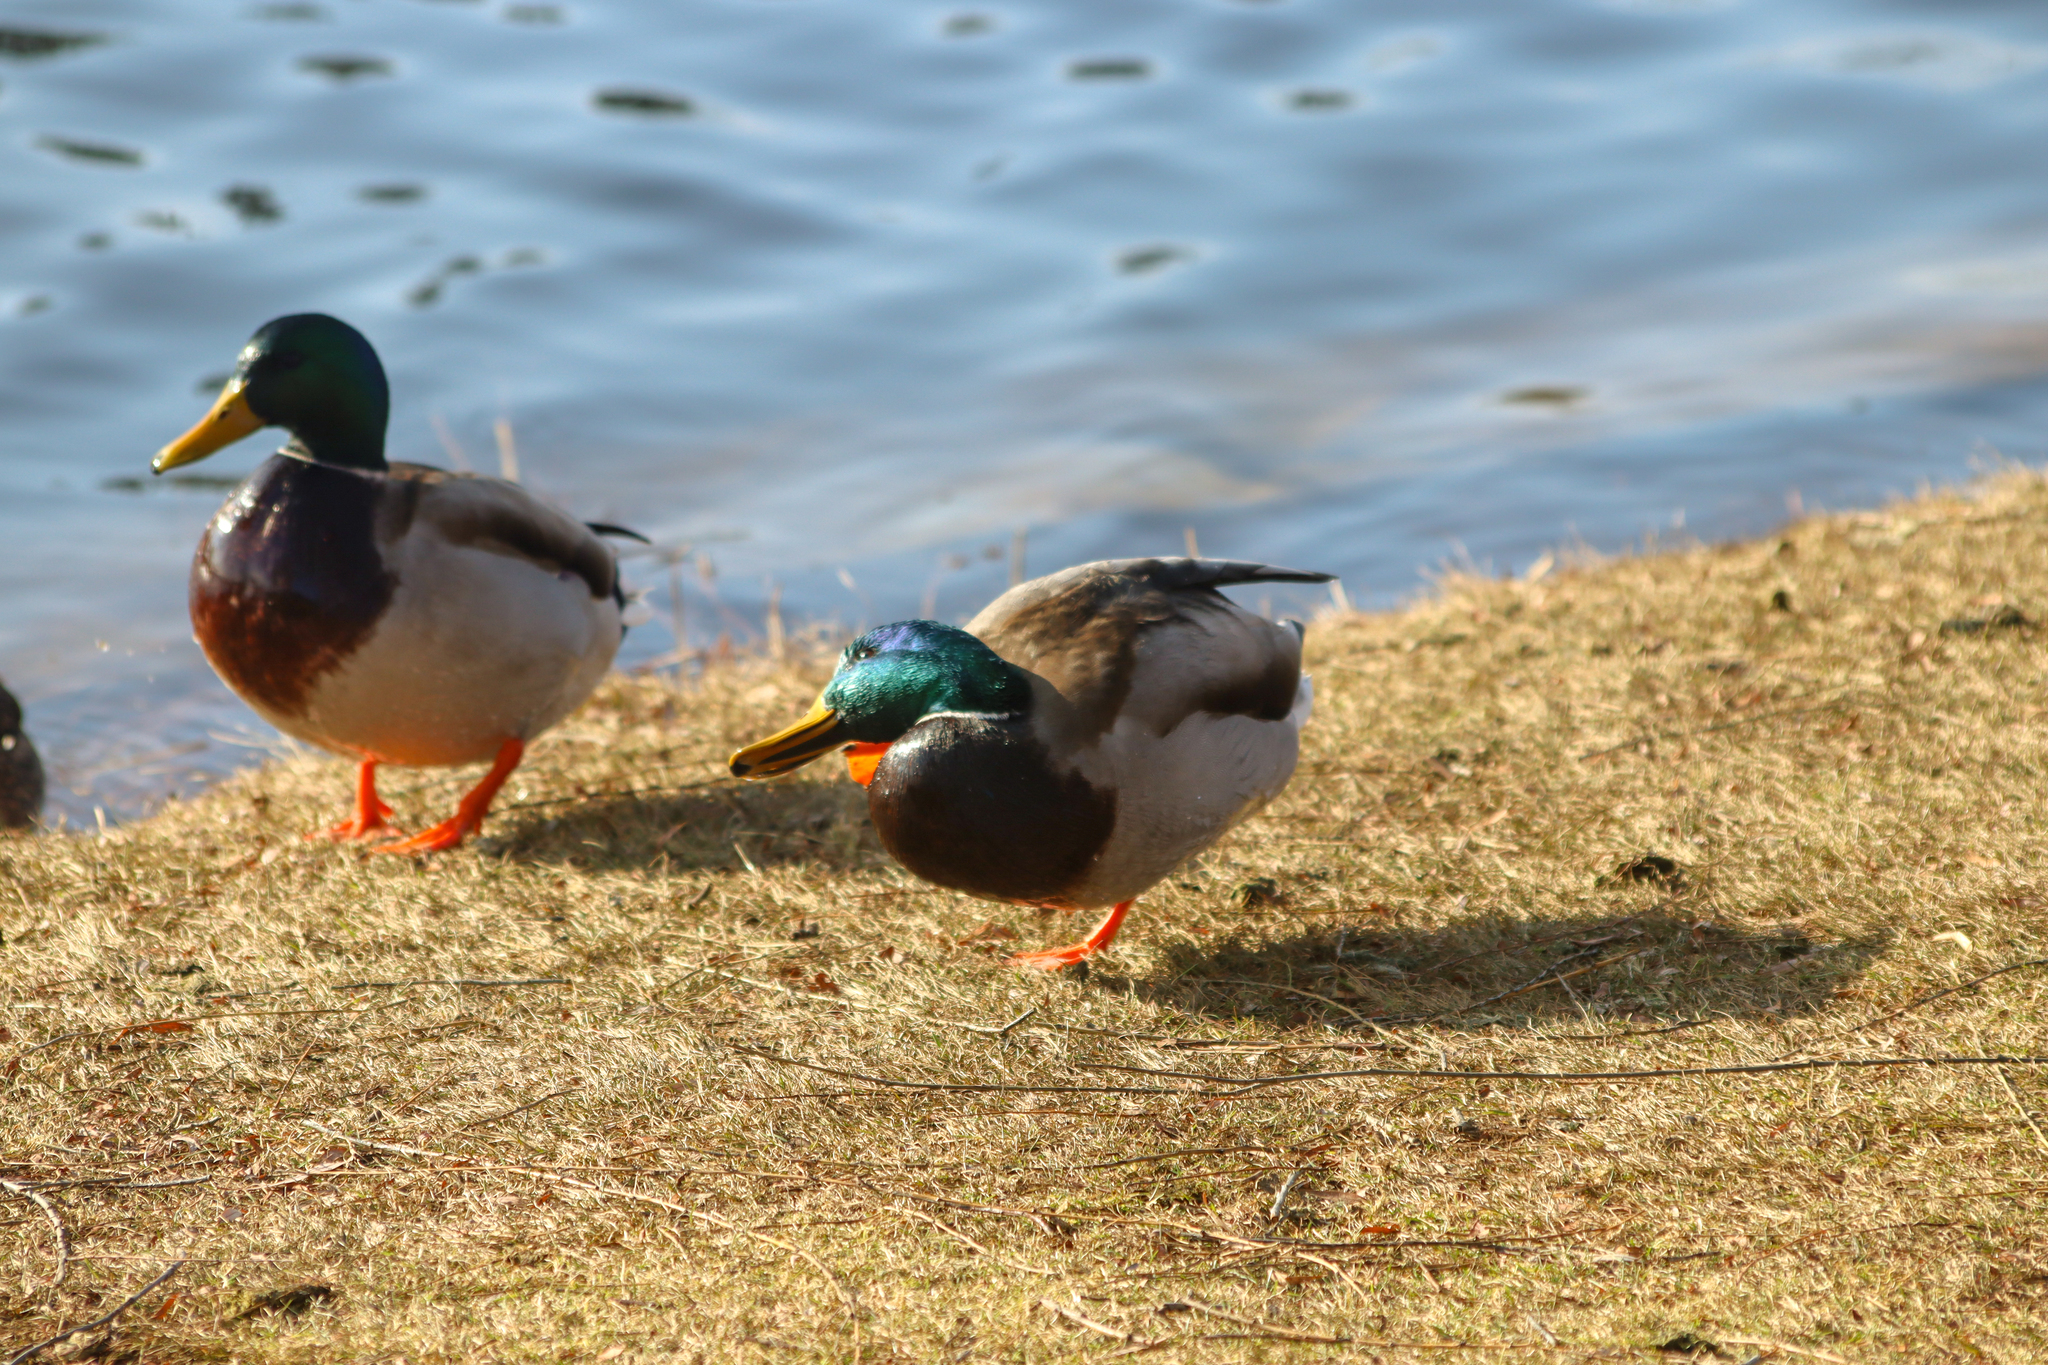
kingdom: Animalia
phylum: Chordata
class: Aves
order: Anseriformes
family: Anatidae
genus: Anas
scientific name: Anas platyrhynchos
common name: Mallard
